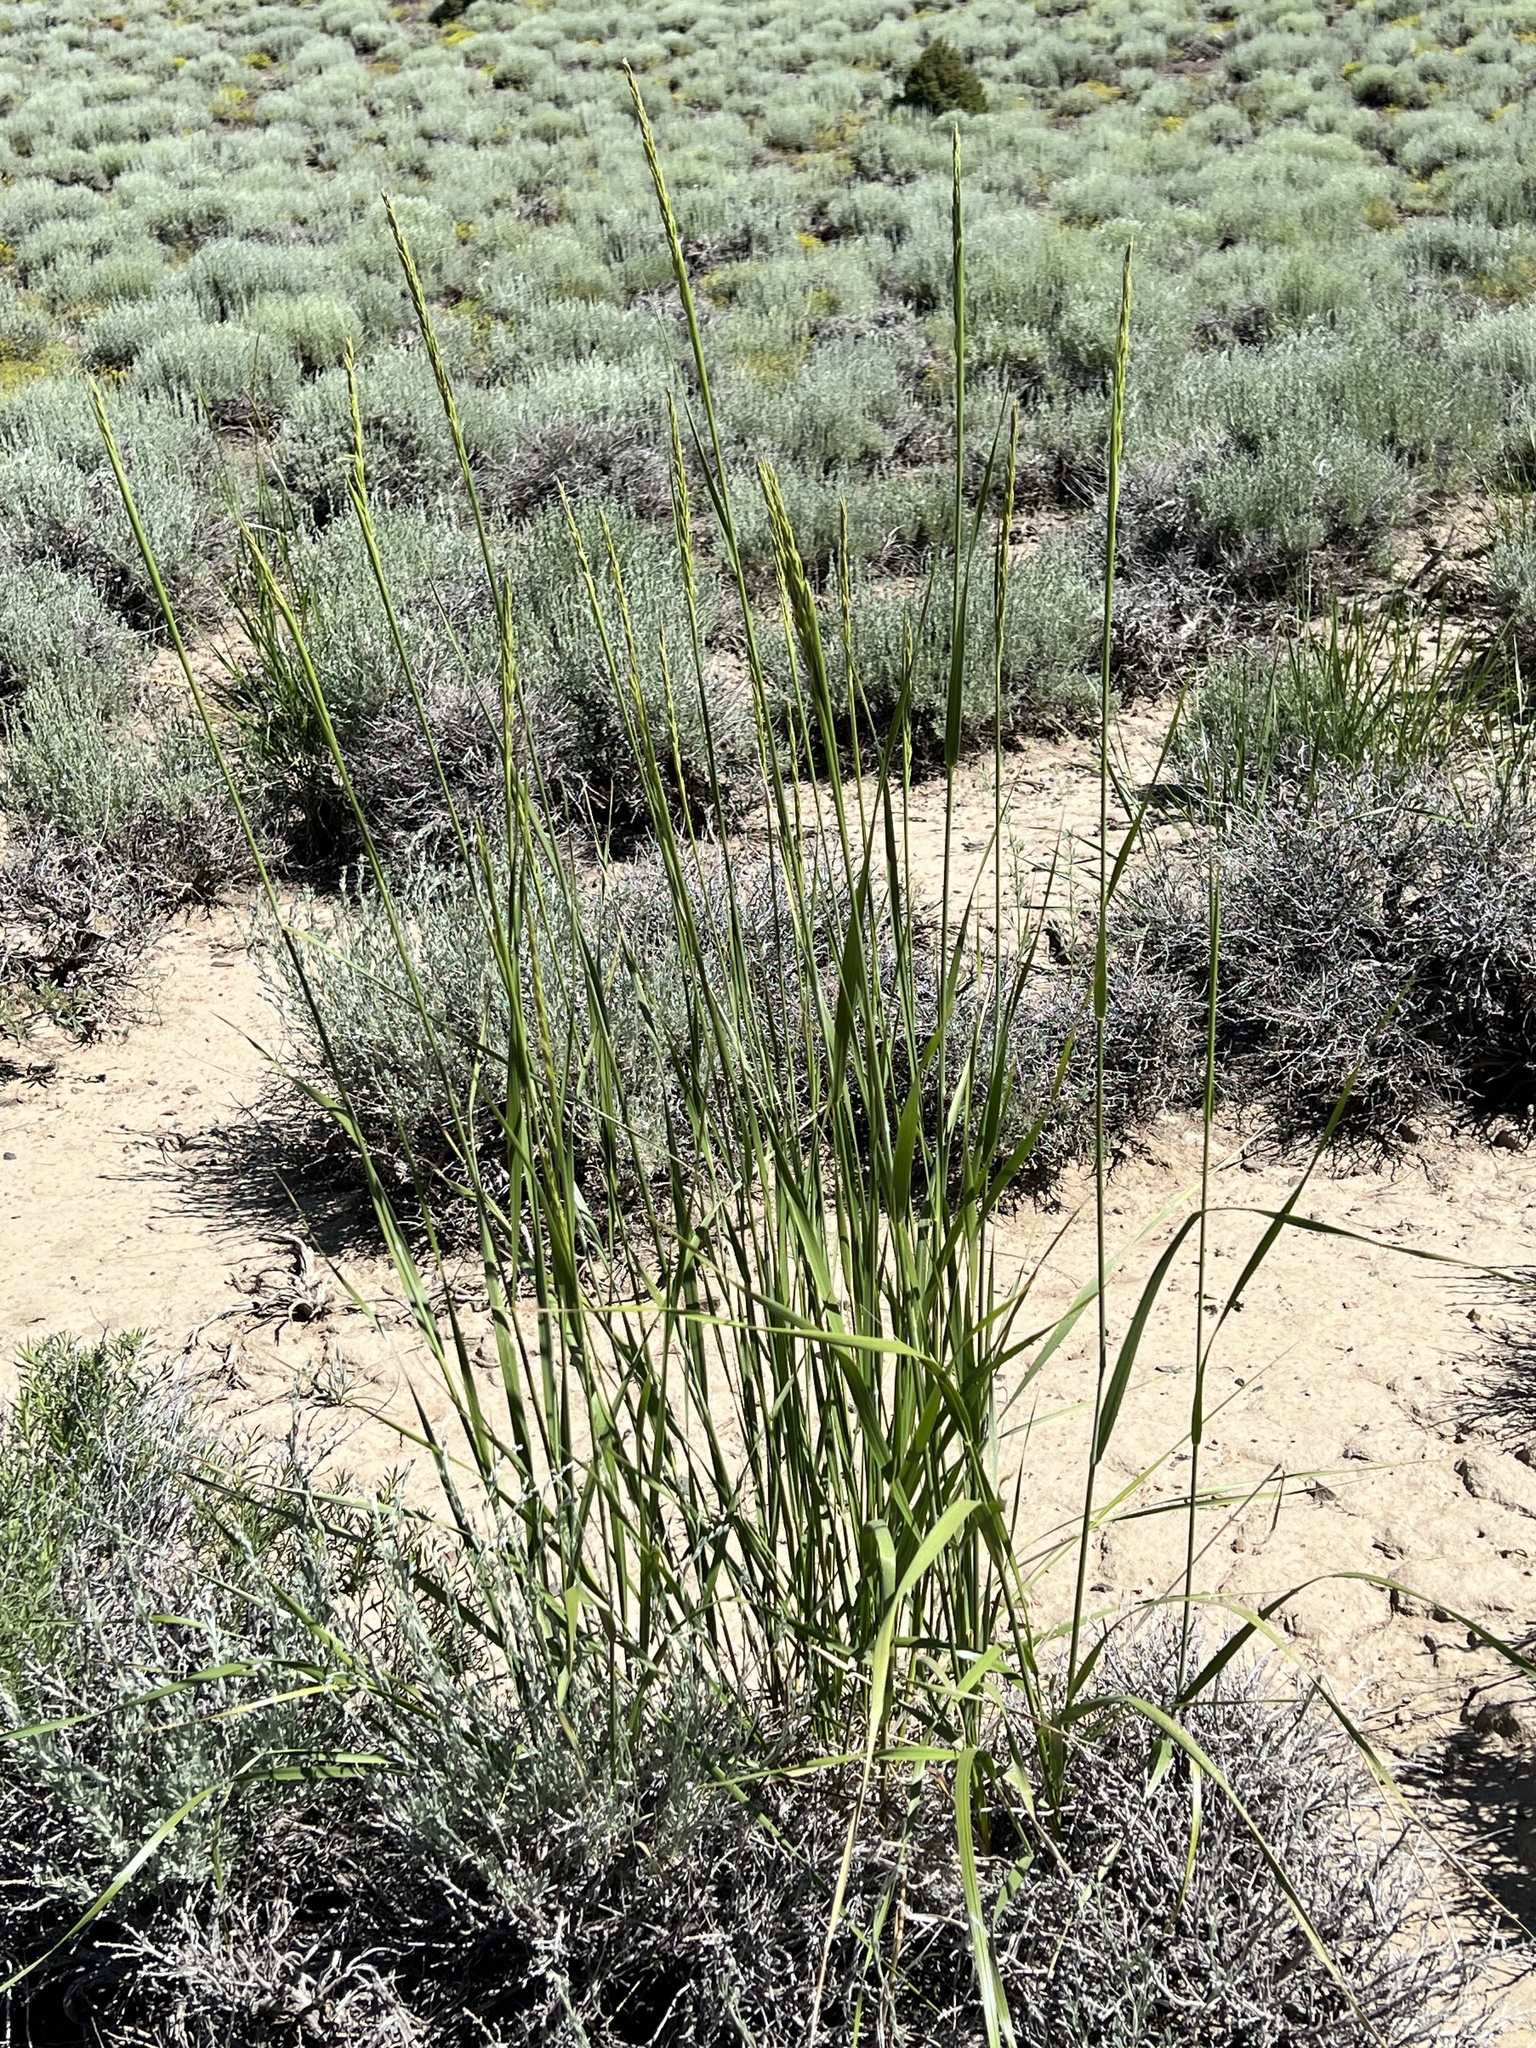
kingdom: Plantae
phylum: Tracheophyta
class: Liliopsida
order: Poales
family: Poaceae
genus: Leymus
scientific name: Leymus cinereus
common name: Basin wild rye
